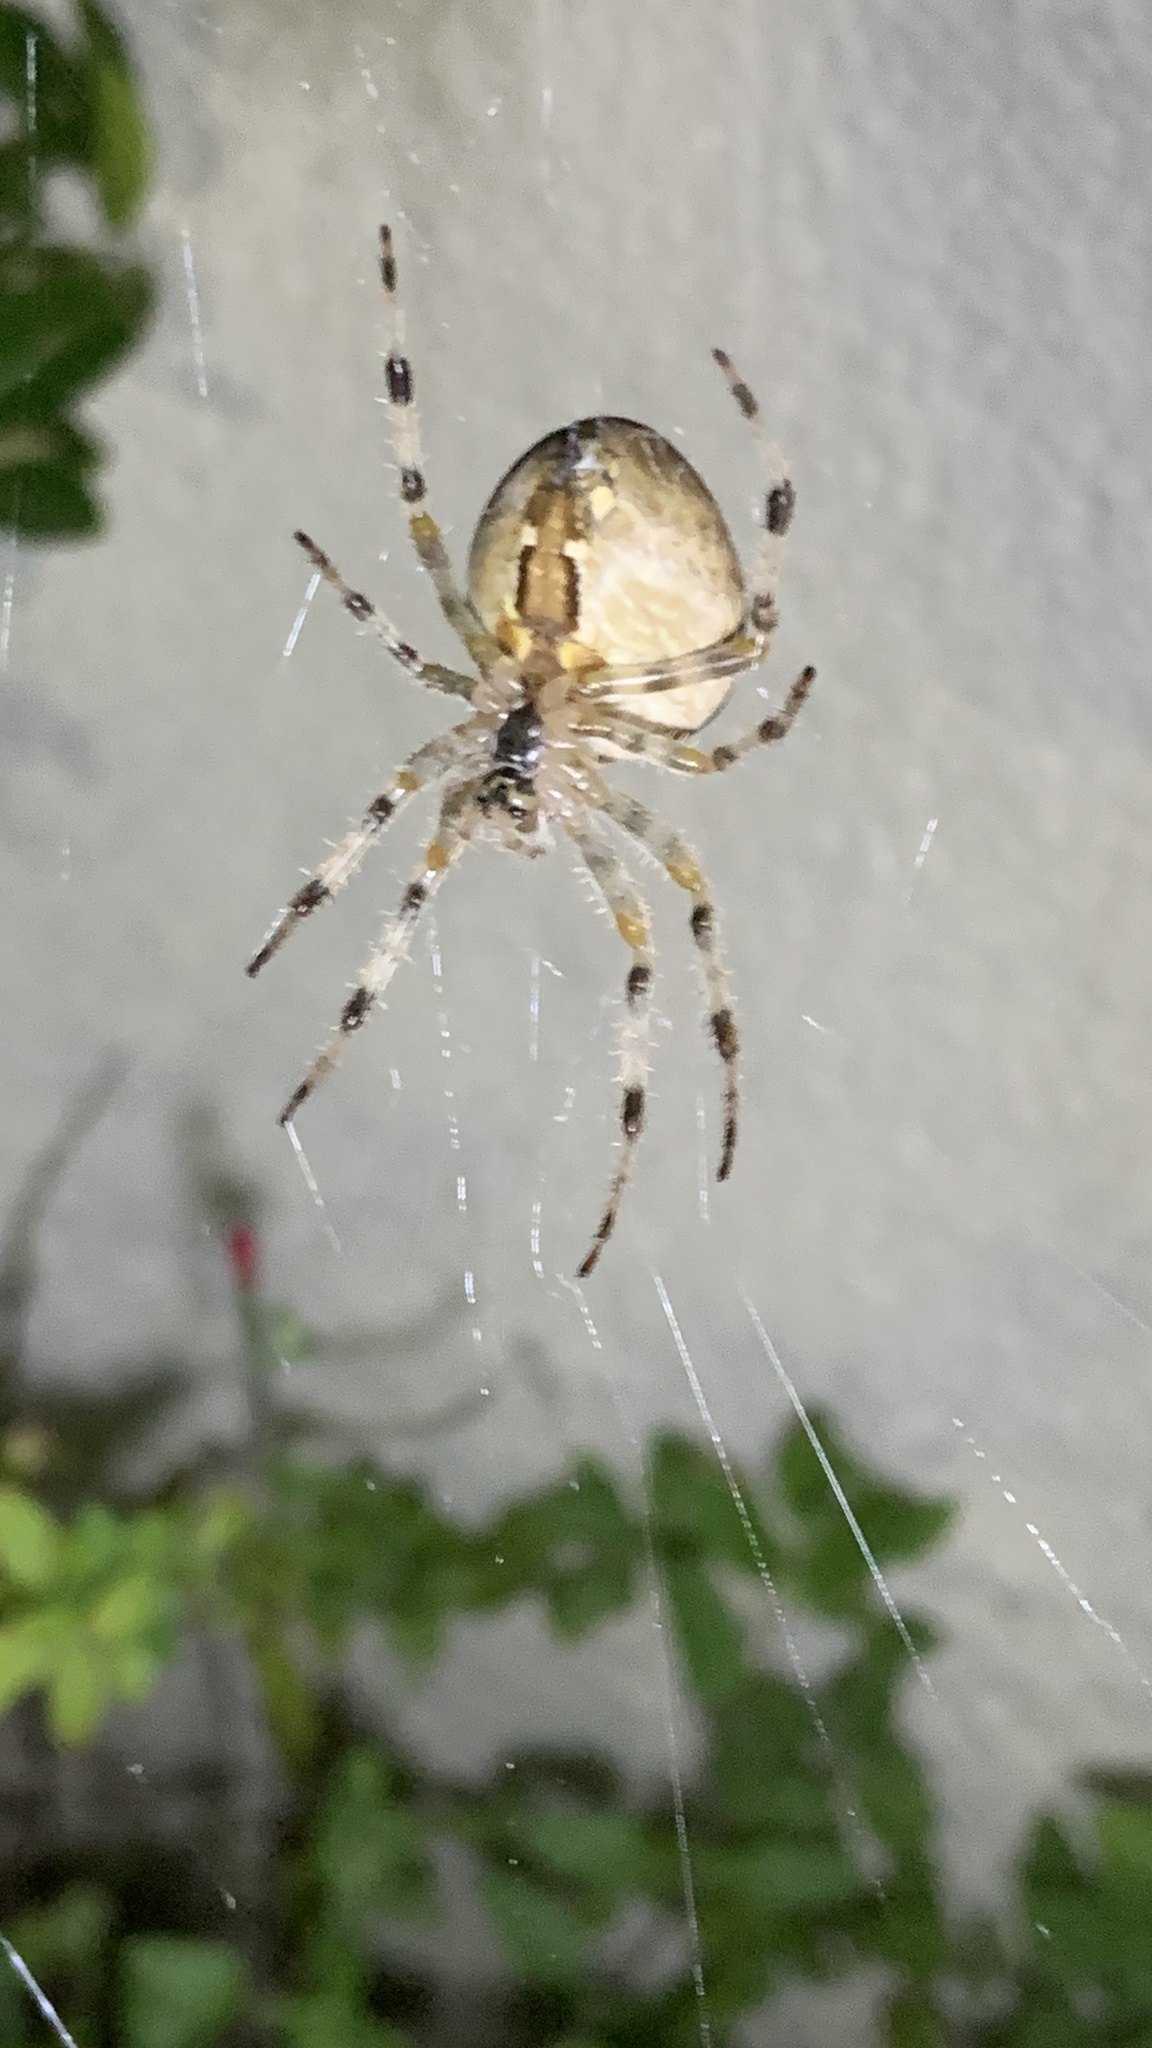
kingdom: Animalia
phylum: Arthropoda
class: Arachnida
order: Araneae
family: Araneidae
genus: Araneus
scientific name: Araneus diadematus
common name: Cross orbweaver
